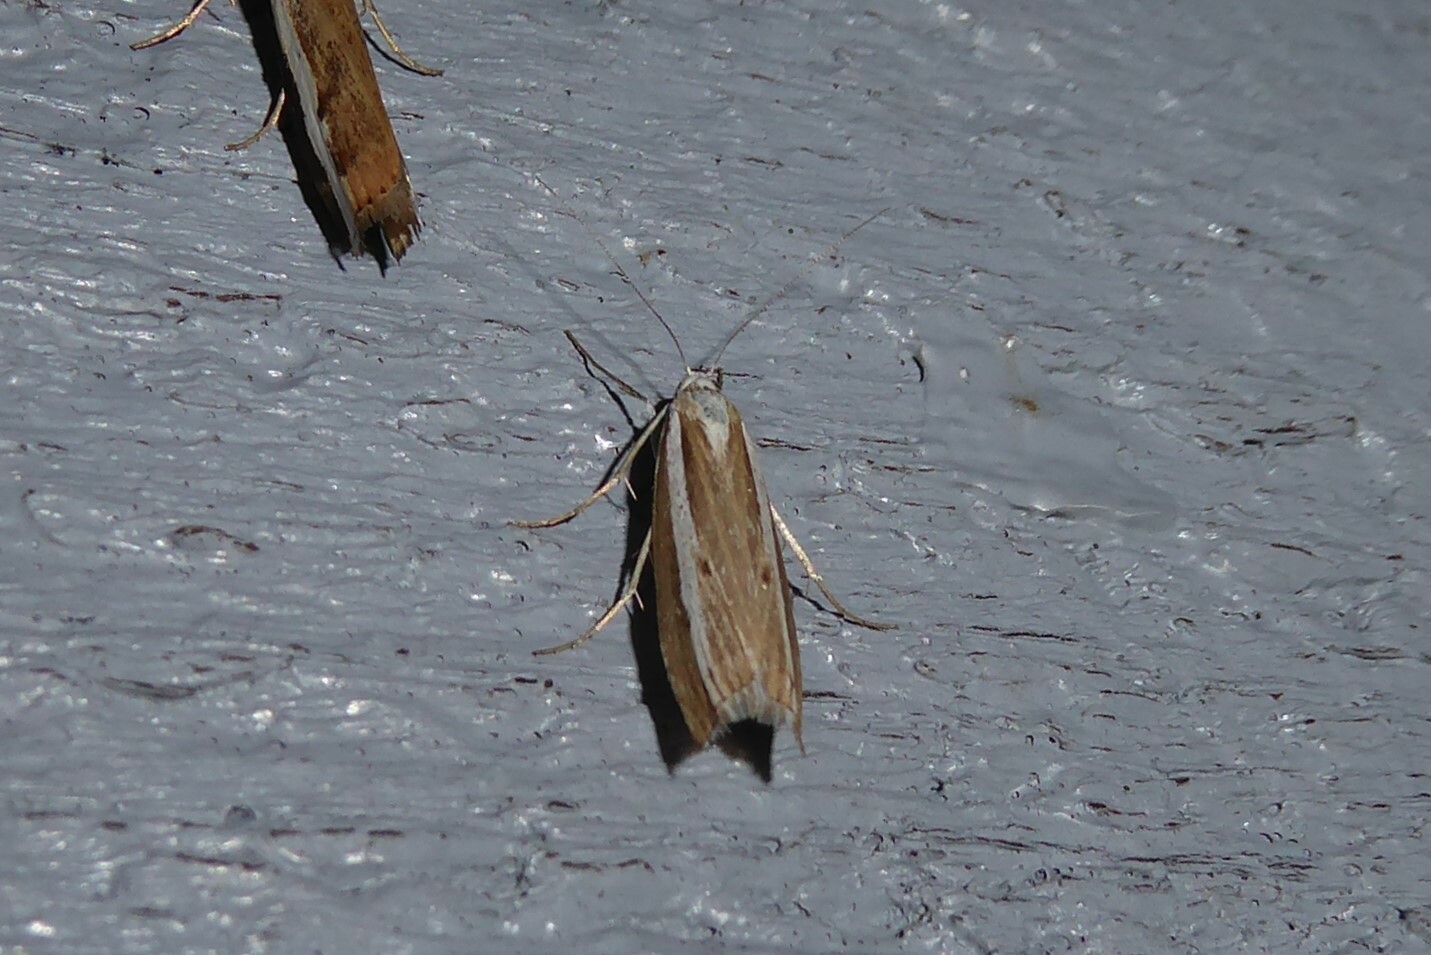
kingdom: Animalia
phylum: Arthropoda
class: Insecta
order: Lepidoptera
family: Crambidae
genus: Orocrambus
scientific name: Orocrambus vittellus
